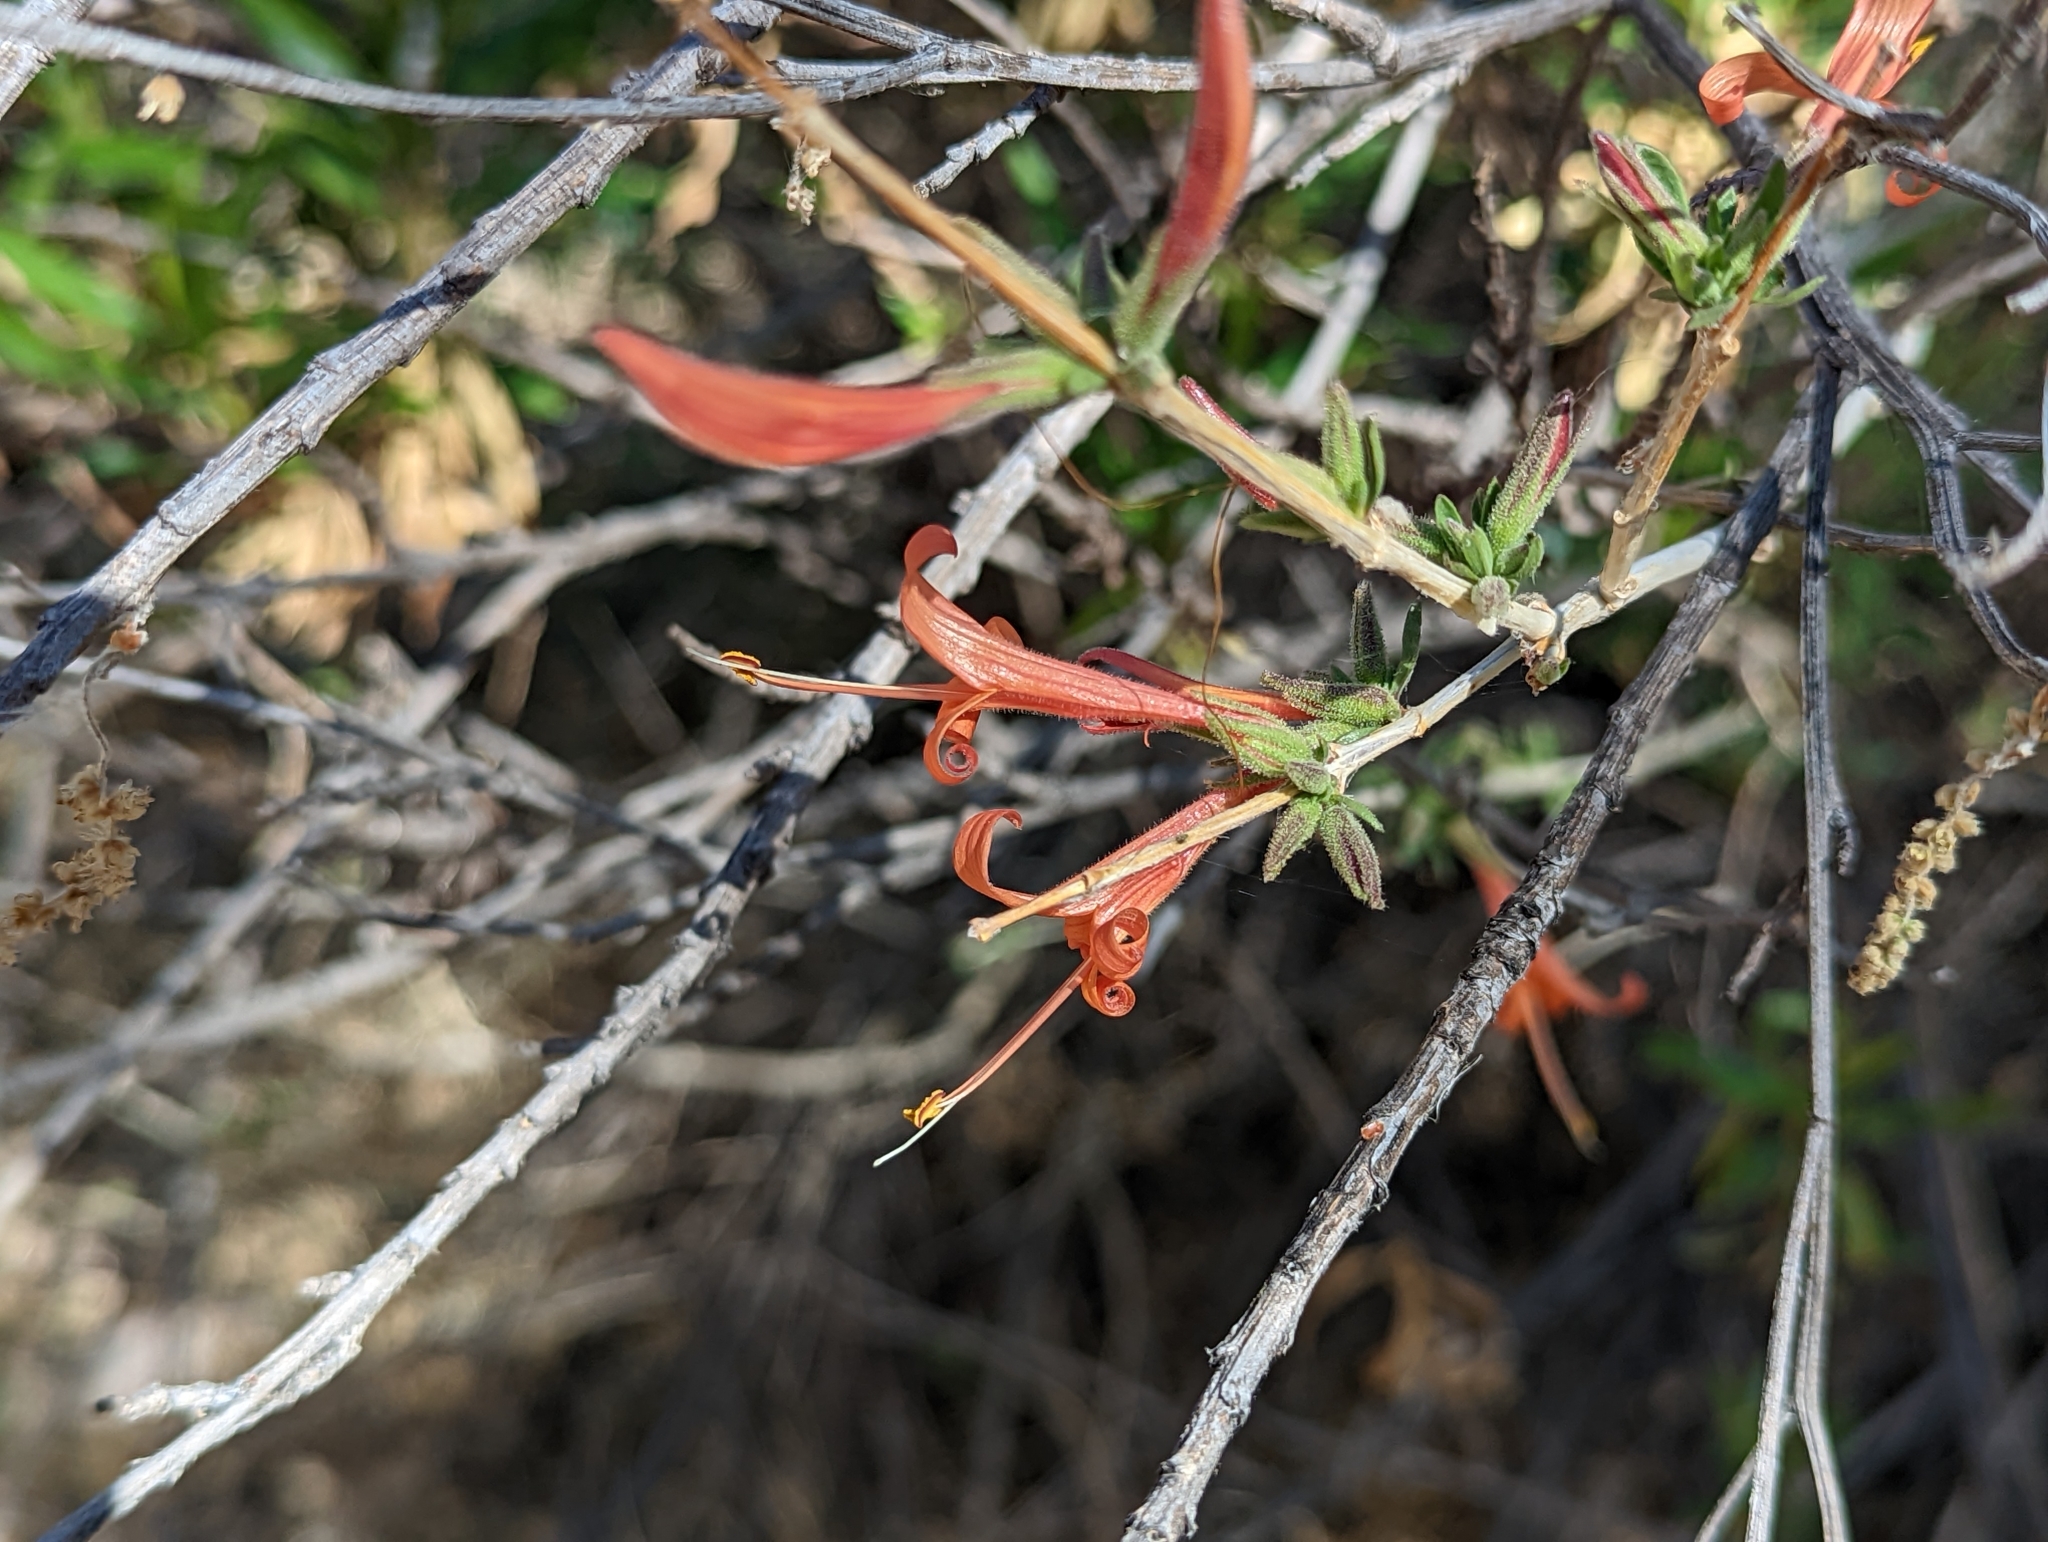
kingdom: Plantae
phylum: Tracheophyta
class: Magnoliopsida
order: Lamiales
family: Acanthaceae
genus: Anisacanthus
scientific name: Anisacanthus thurberi
